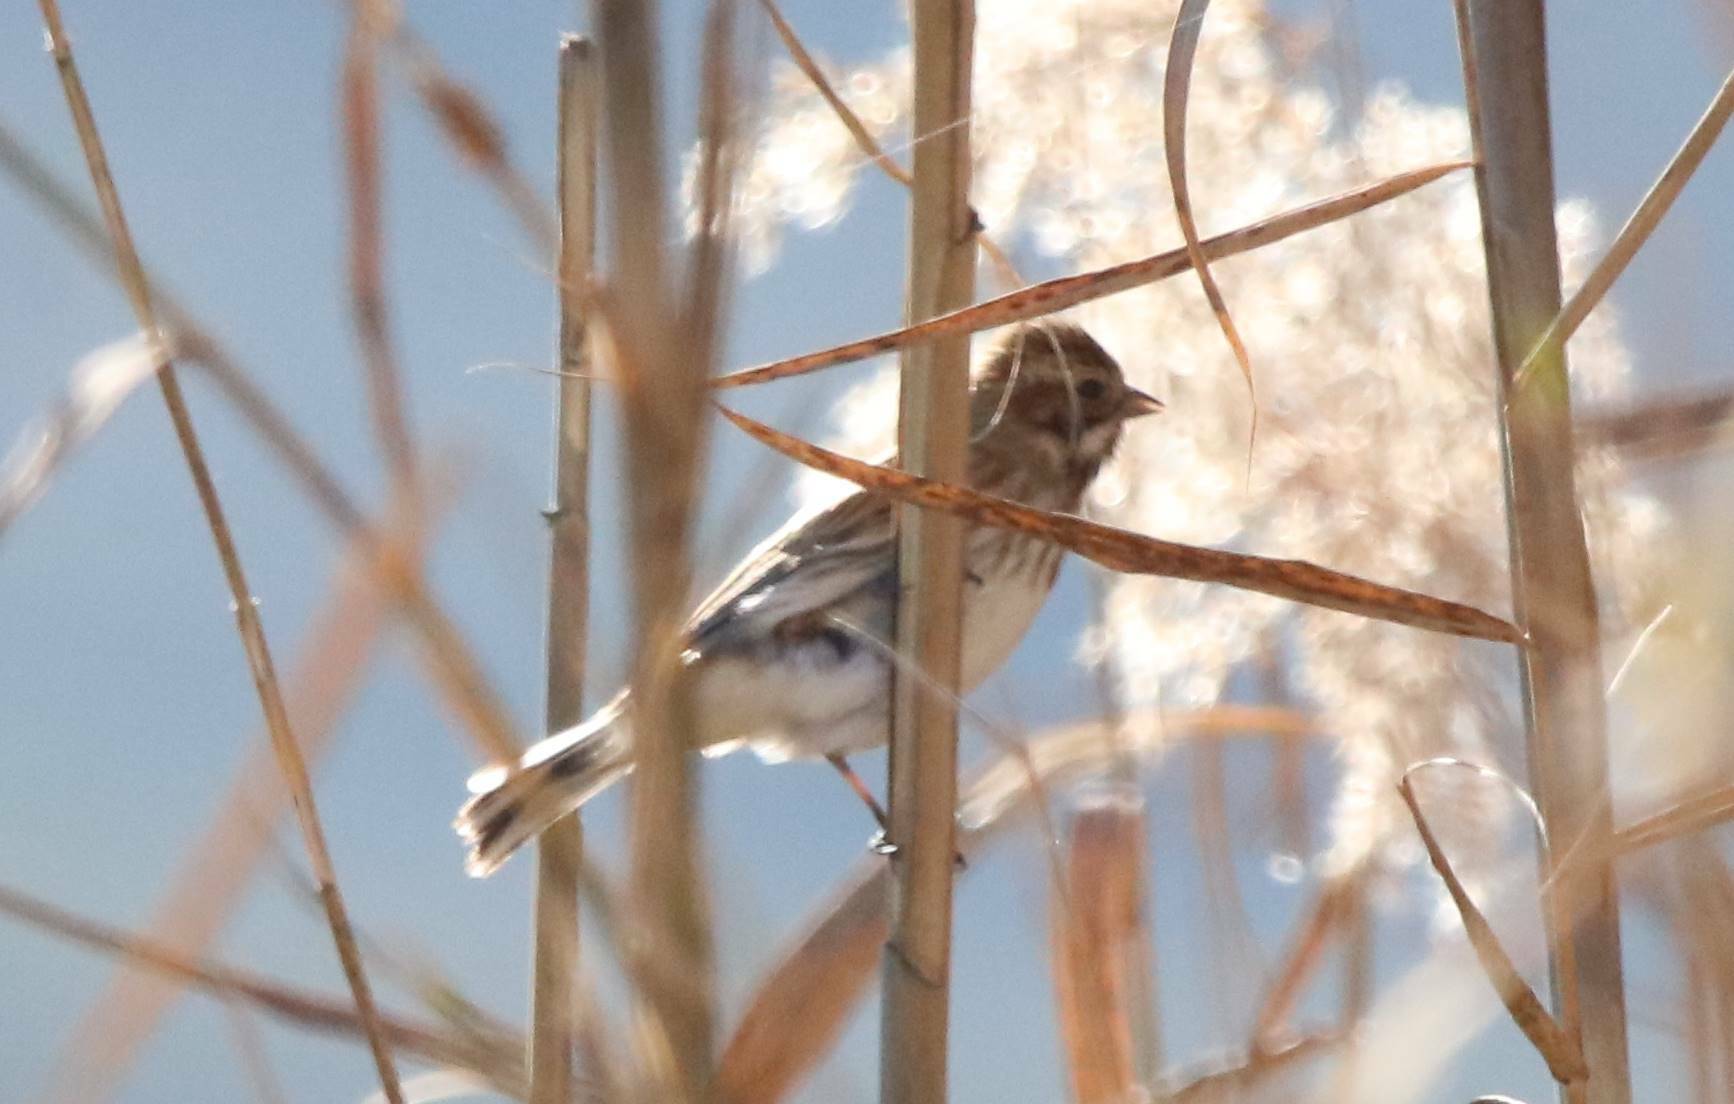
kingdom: Animalia
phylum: Chordata
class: Aves
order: Passeriformes
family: Emberizidae
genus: Emberiza
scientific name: Emberiza schoeniclus
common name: Reed bunting
